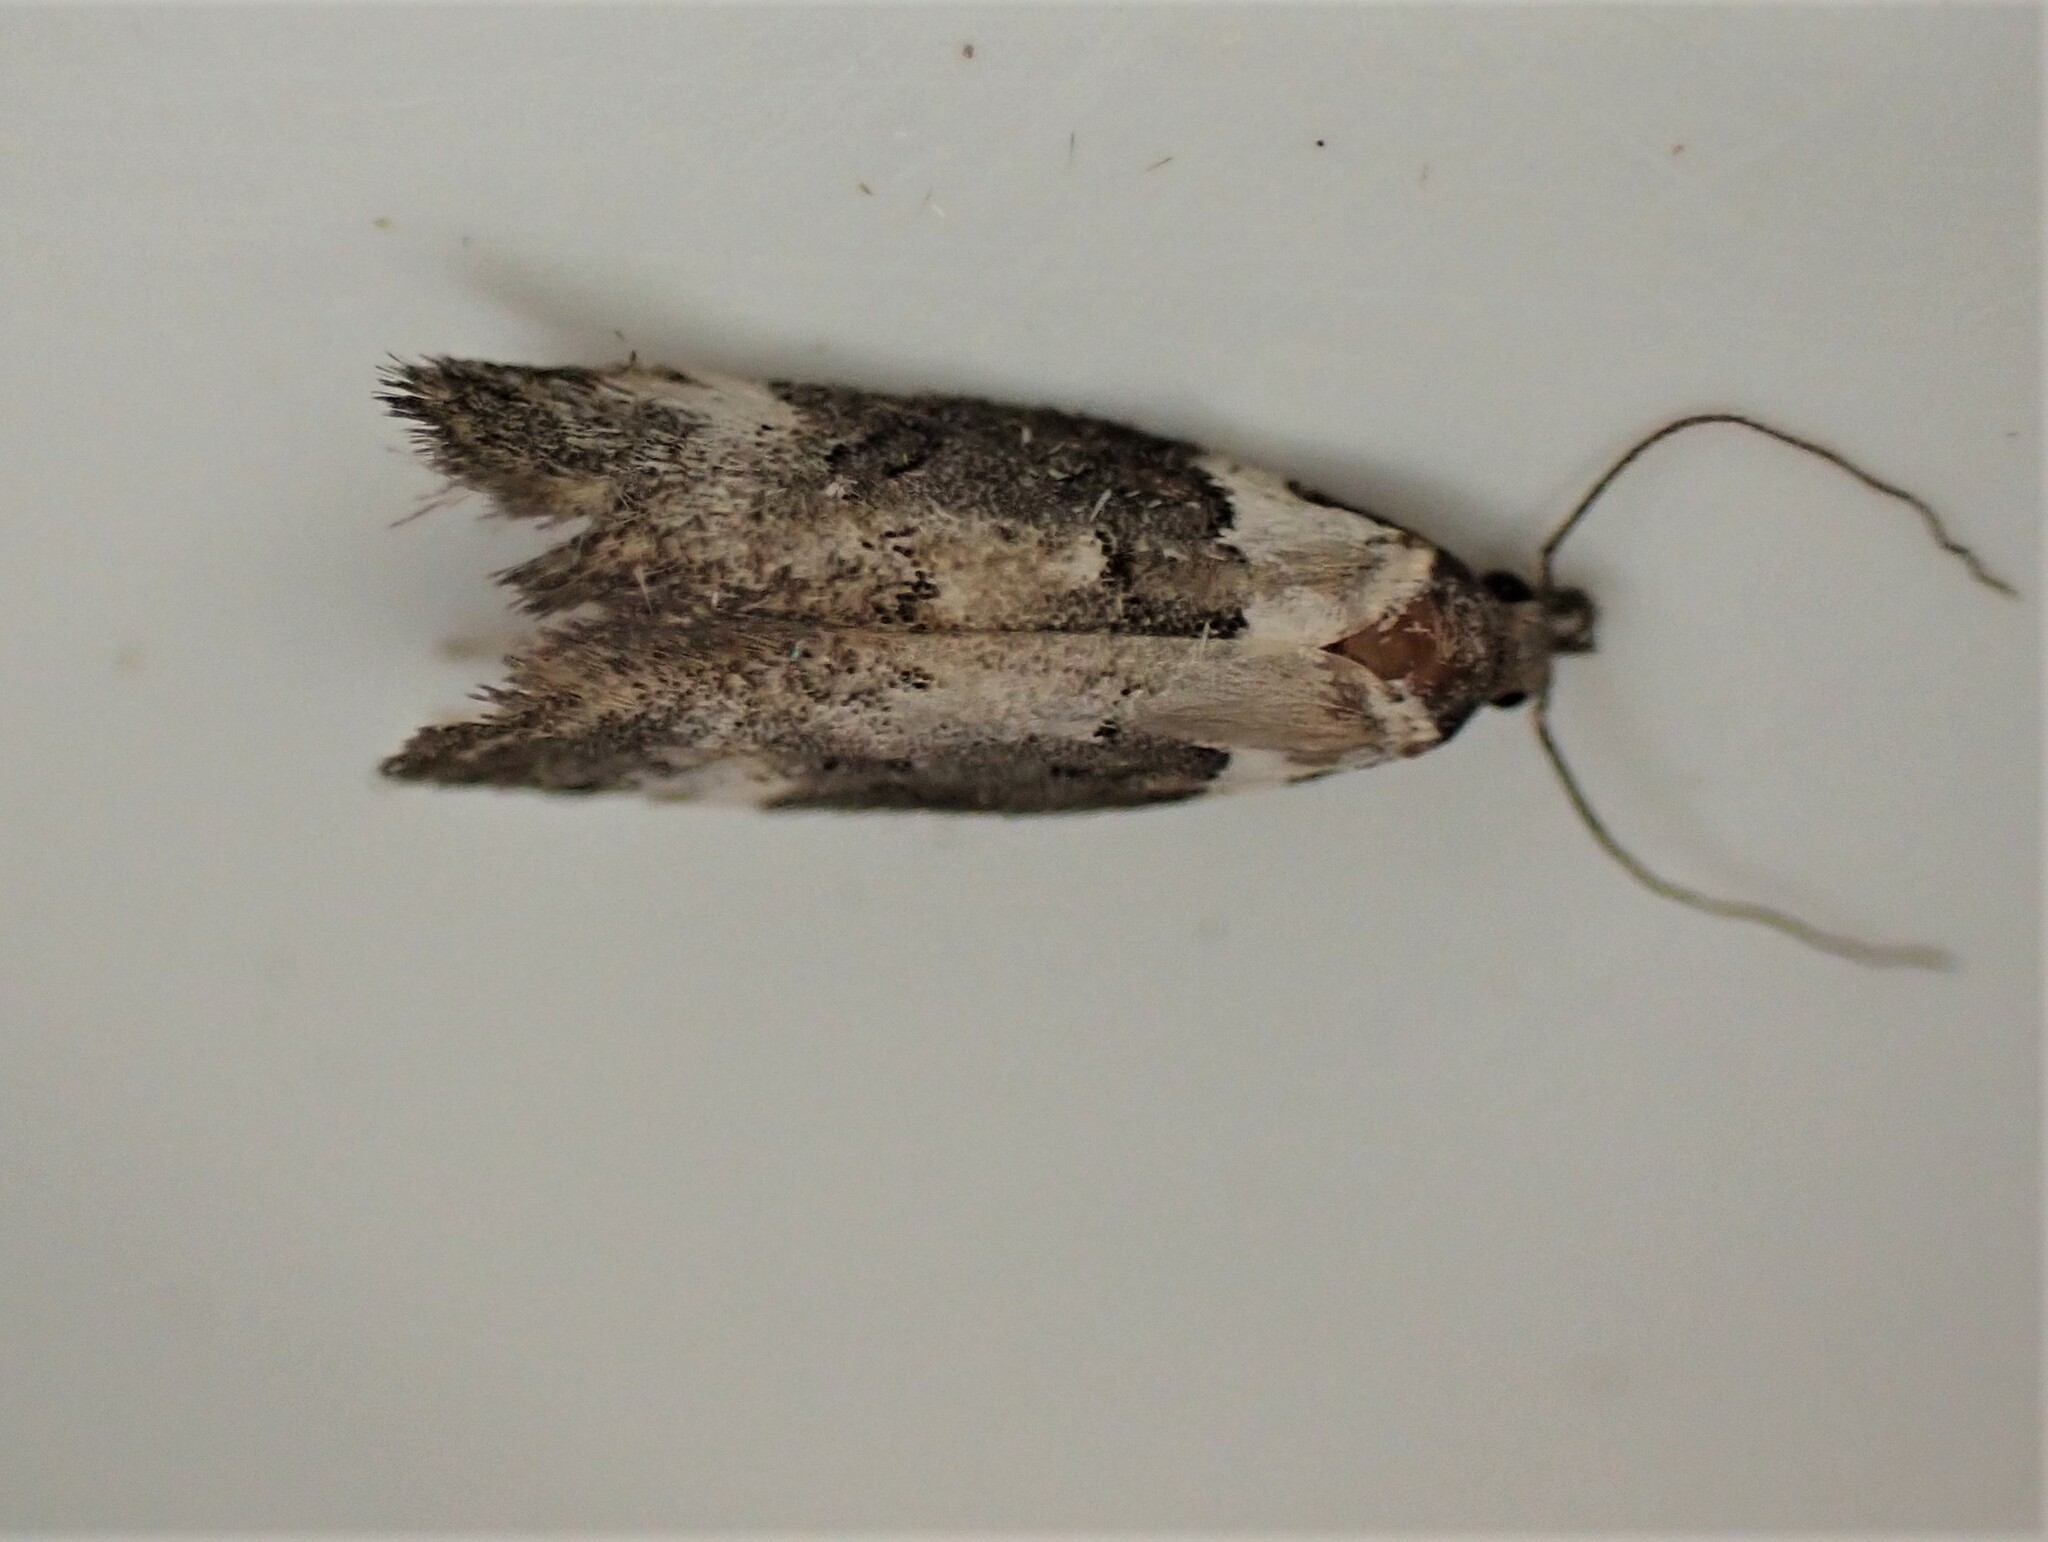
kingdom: Animalia
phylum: Arthropoda
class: Insecta
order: Lepidoptera
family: Oecophoridae
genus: Trachypepla
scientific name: Trachypepla conspicuella
